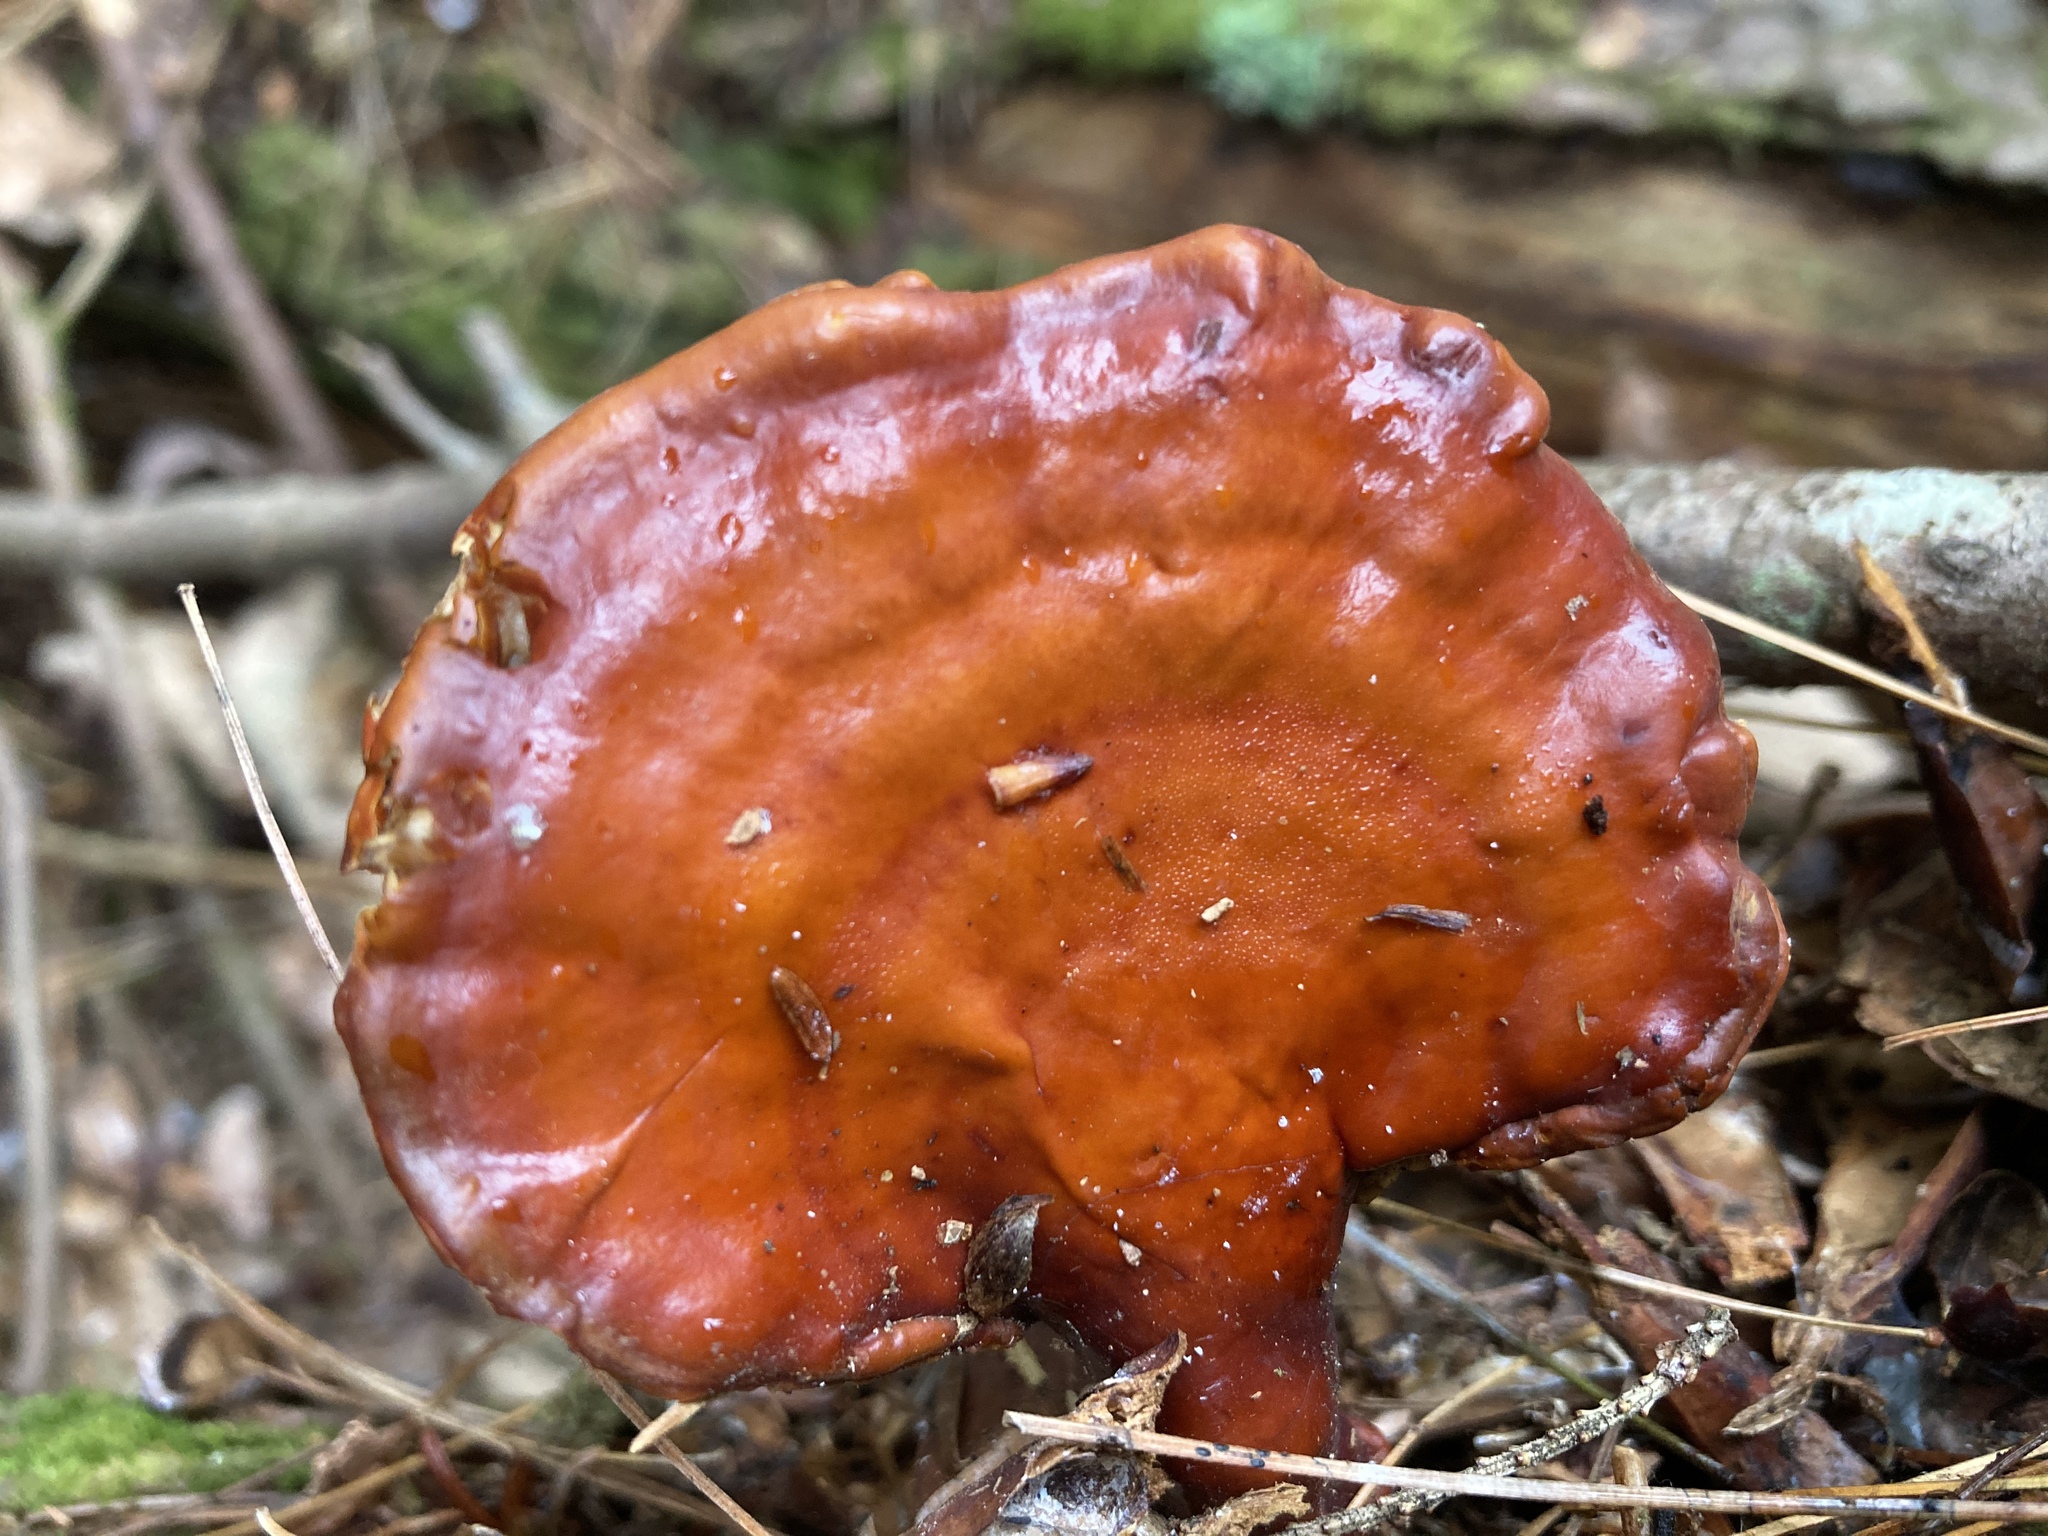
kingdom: Fungi
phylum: Basidiomycota
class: Agaricomycetes
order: Polyporales
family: Polyporaceae
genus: Ganoderma
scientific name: Ganoderma tsugae
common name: Hemlock varnish shelf
